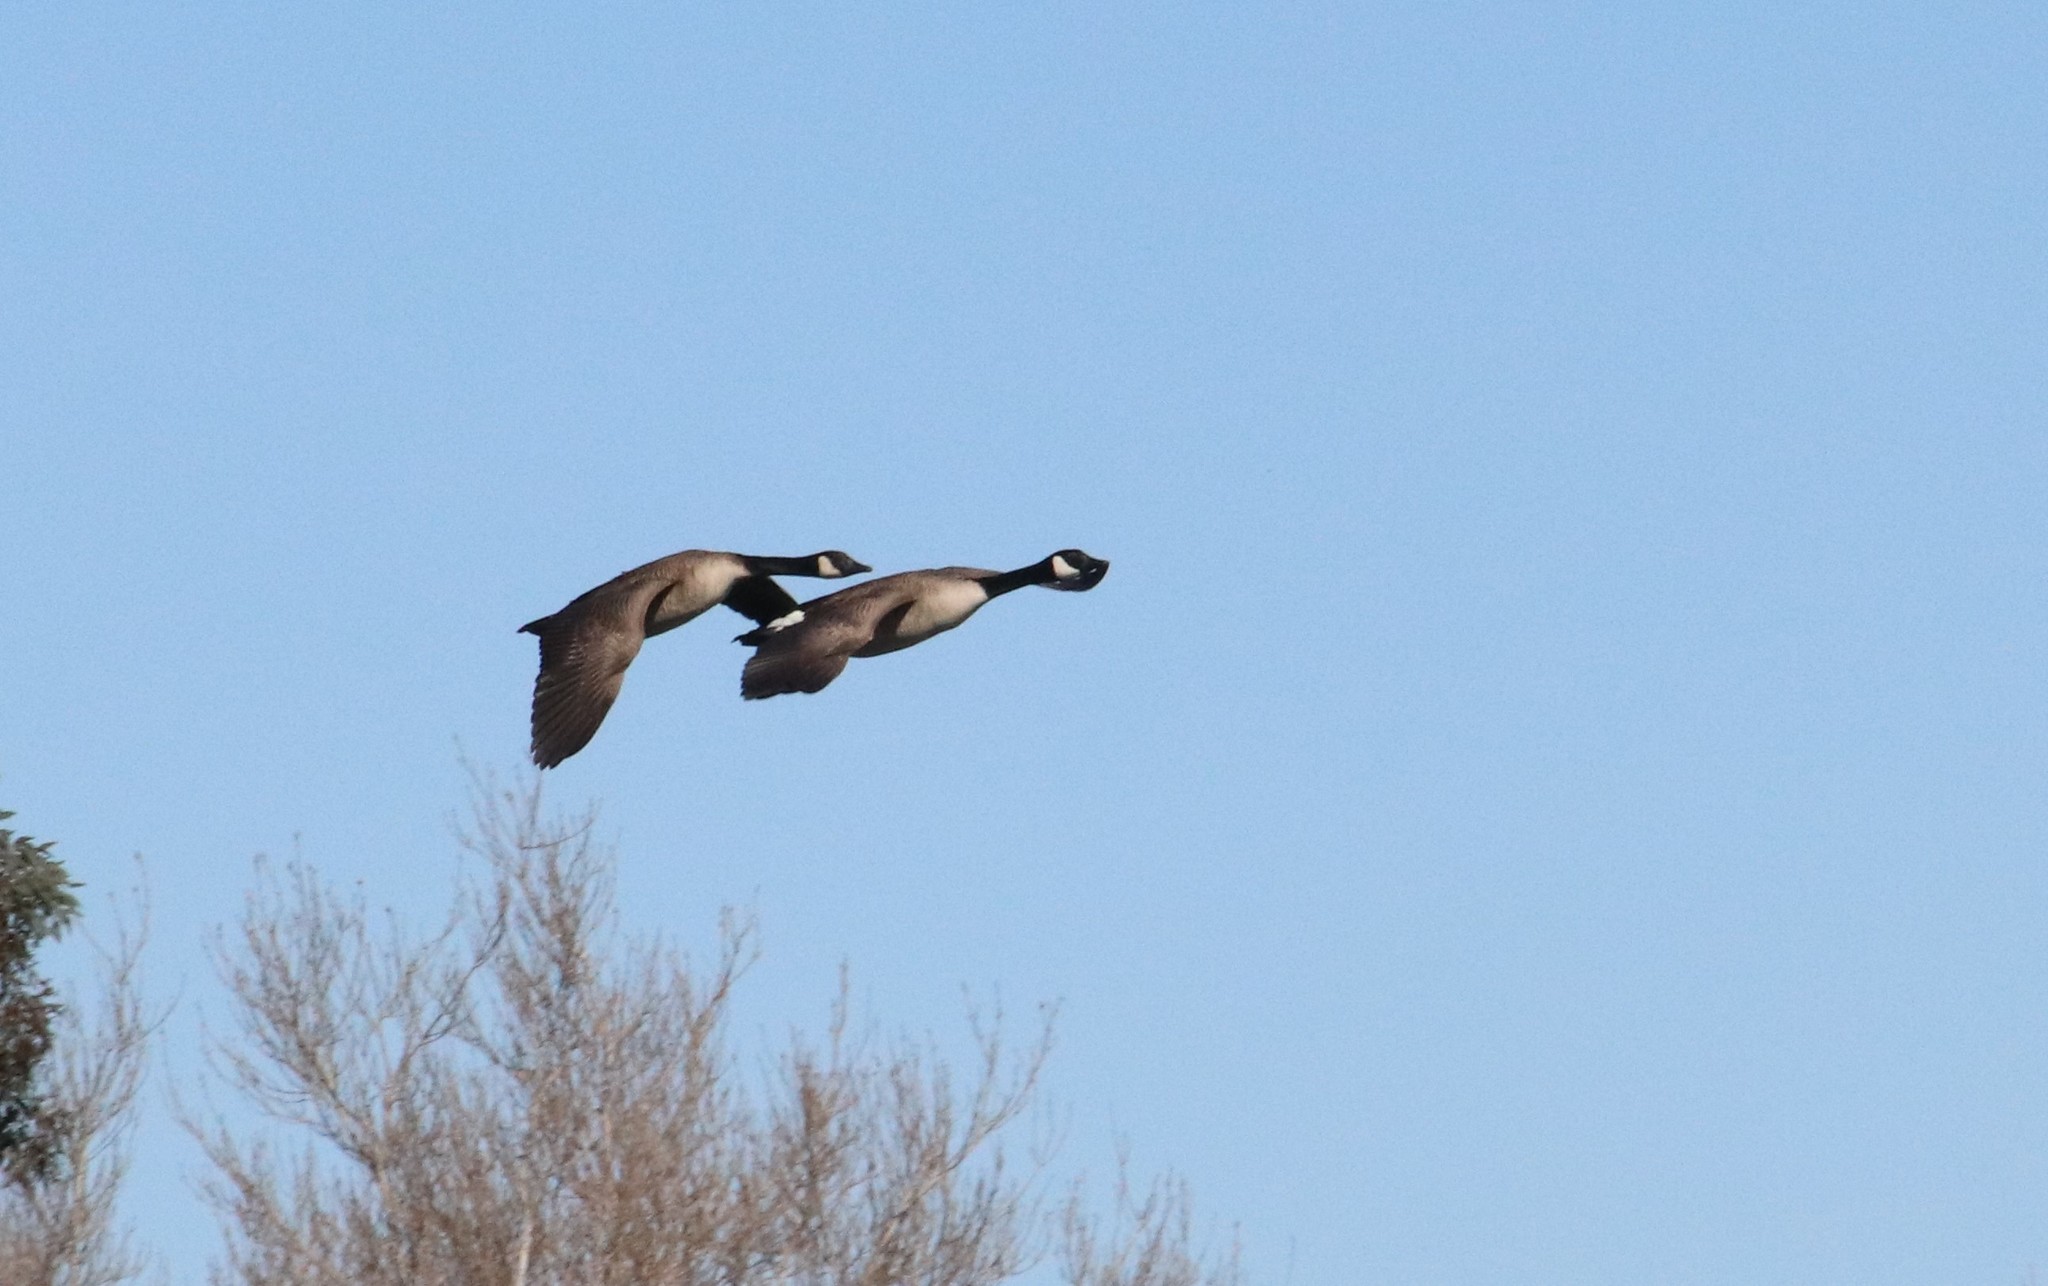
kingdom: Animalia
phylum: Chordata
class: Aves
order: Anseriformes
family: Anatidae
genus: Branta
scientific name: Branta canadensis
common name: Canada goose
